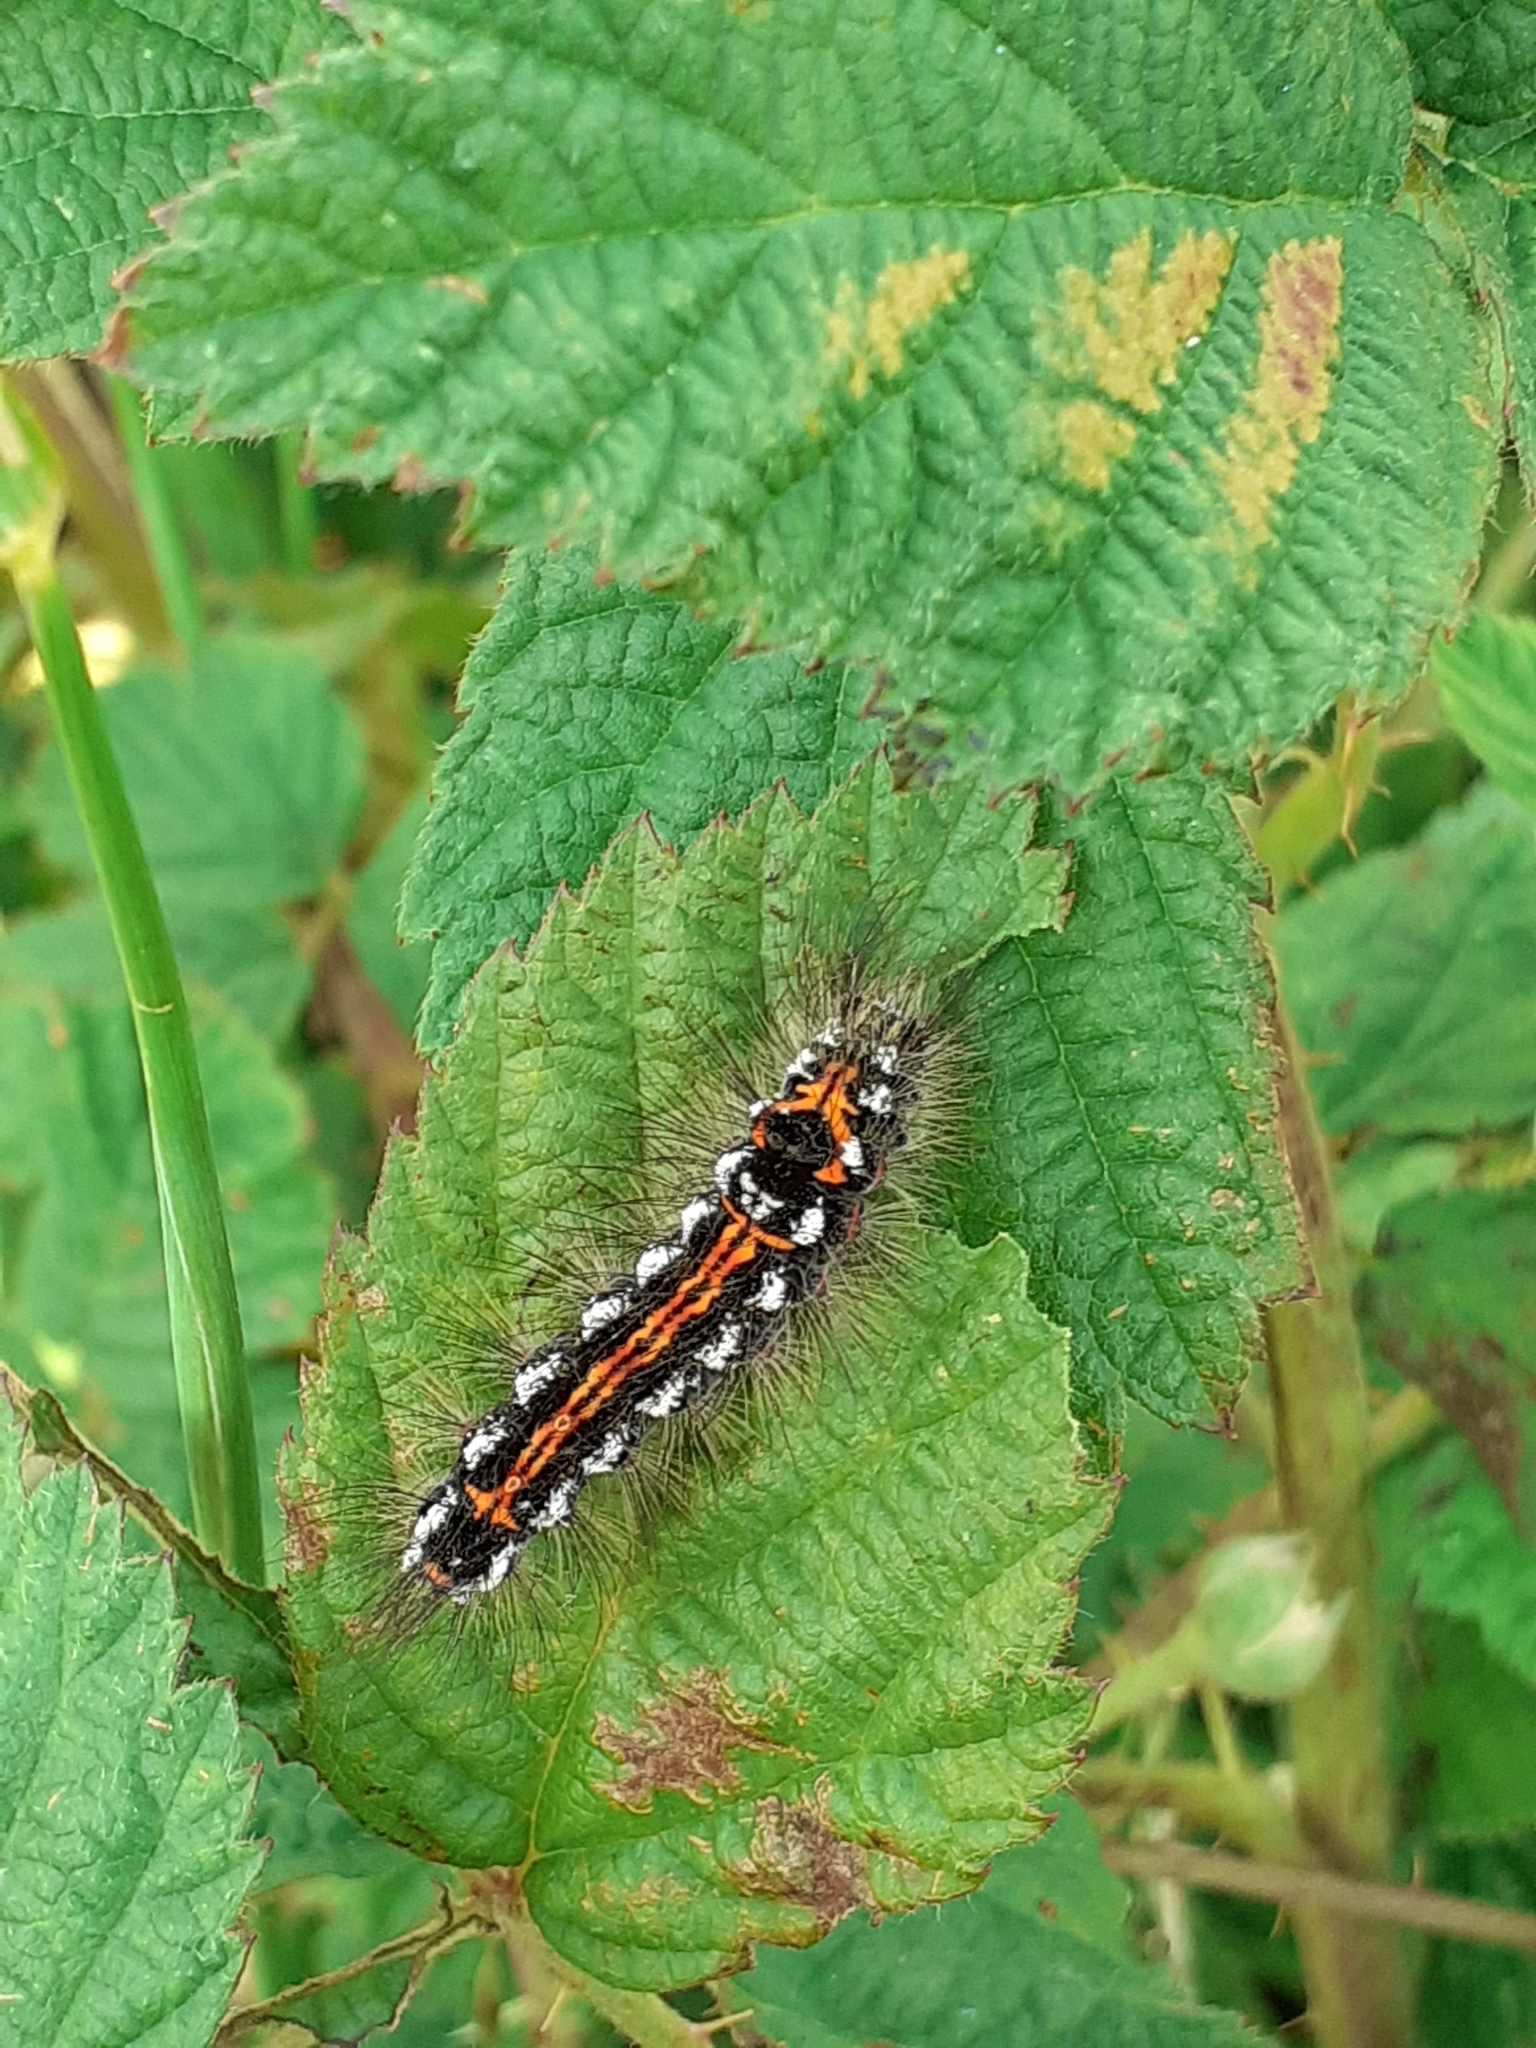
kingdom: Animalia
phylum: Arthropoda
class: Insecta
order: Lepidoptera
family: Erebidae
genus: Sphrageidus
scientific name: Sphrageidus similis
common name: Yellow-tail
